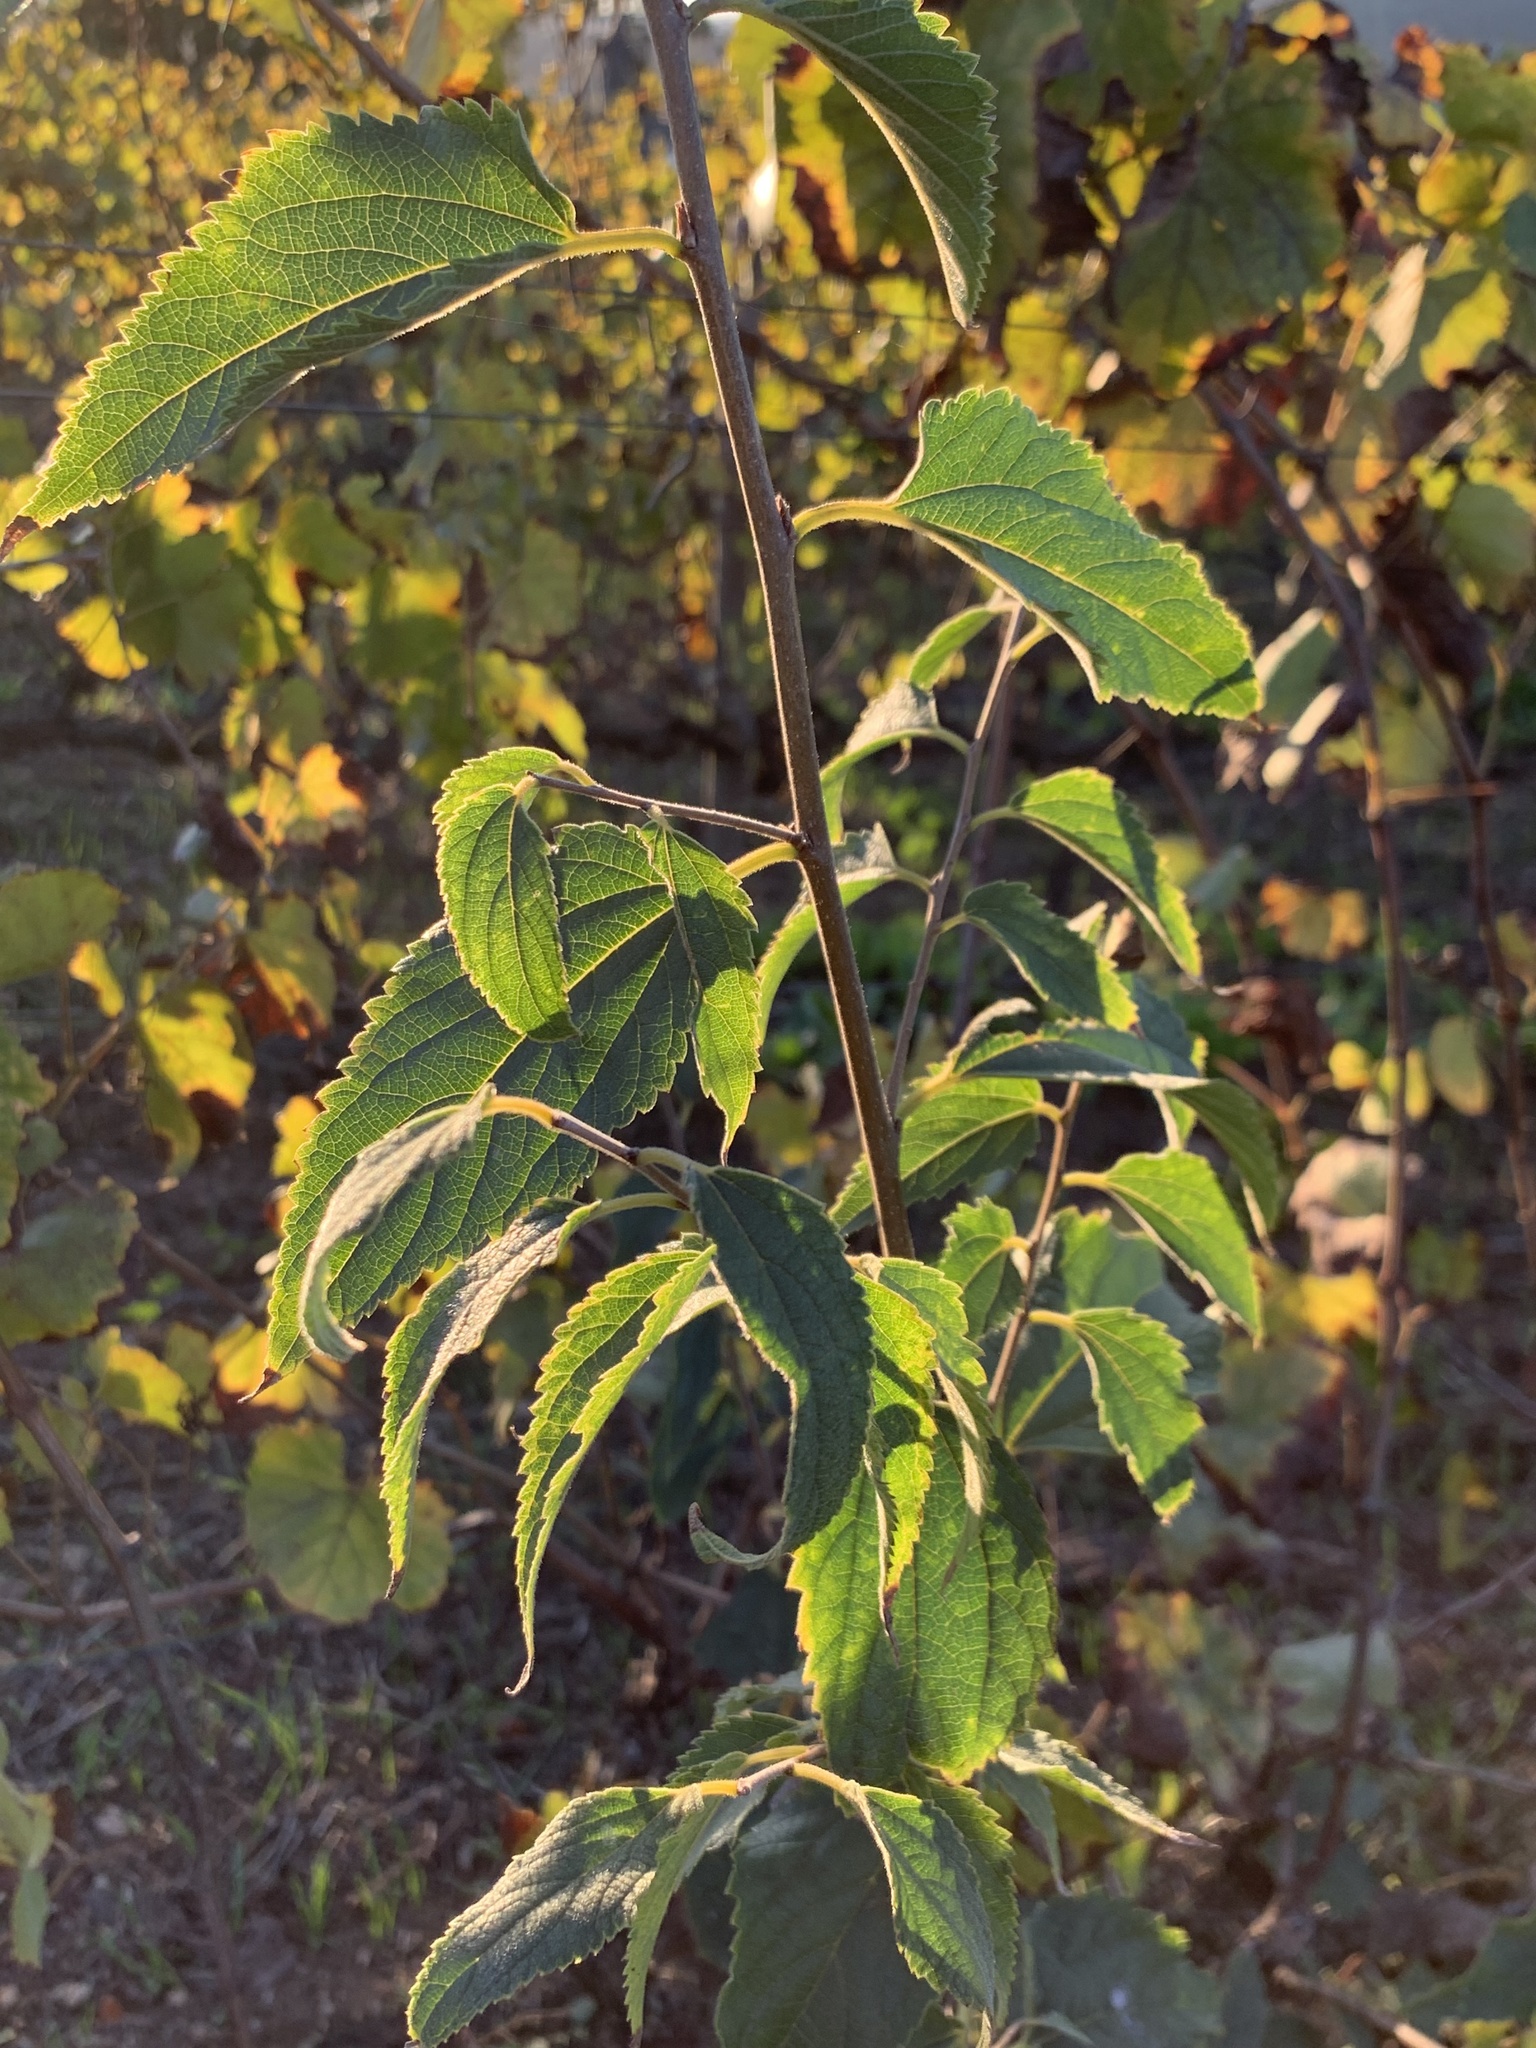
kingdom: Plantae
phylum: Tracheophyta
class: Magnoliopsida
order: Rosales
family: Cannabaceae
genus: Celtis
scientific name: Celtis australis
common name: European hackberry
